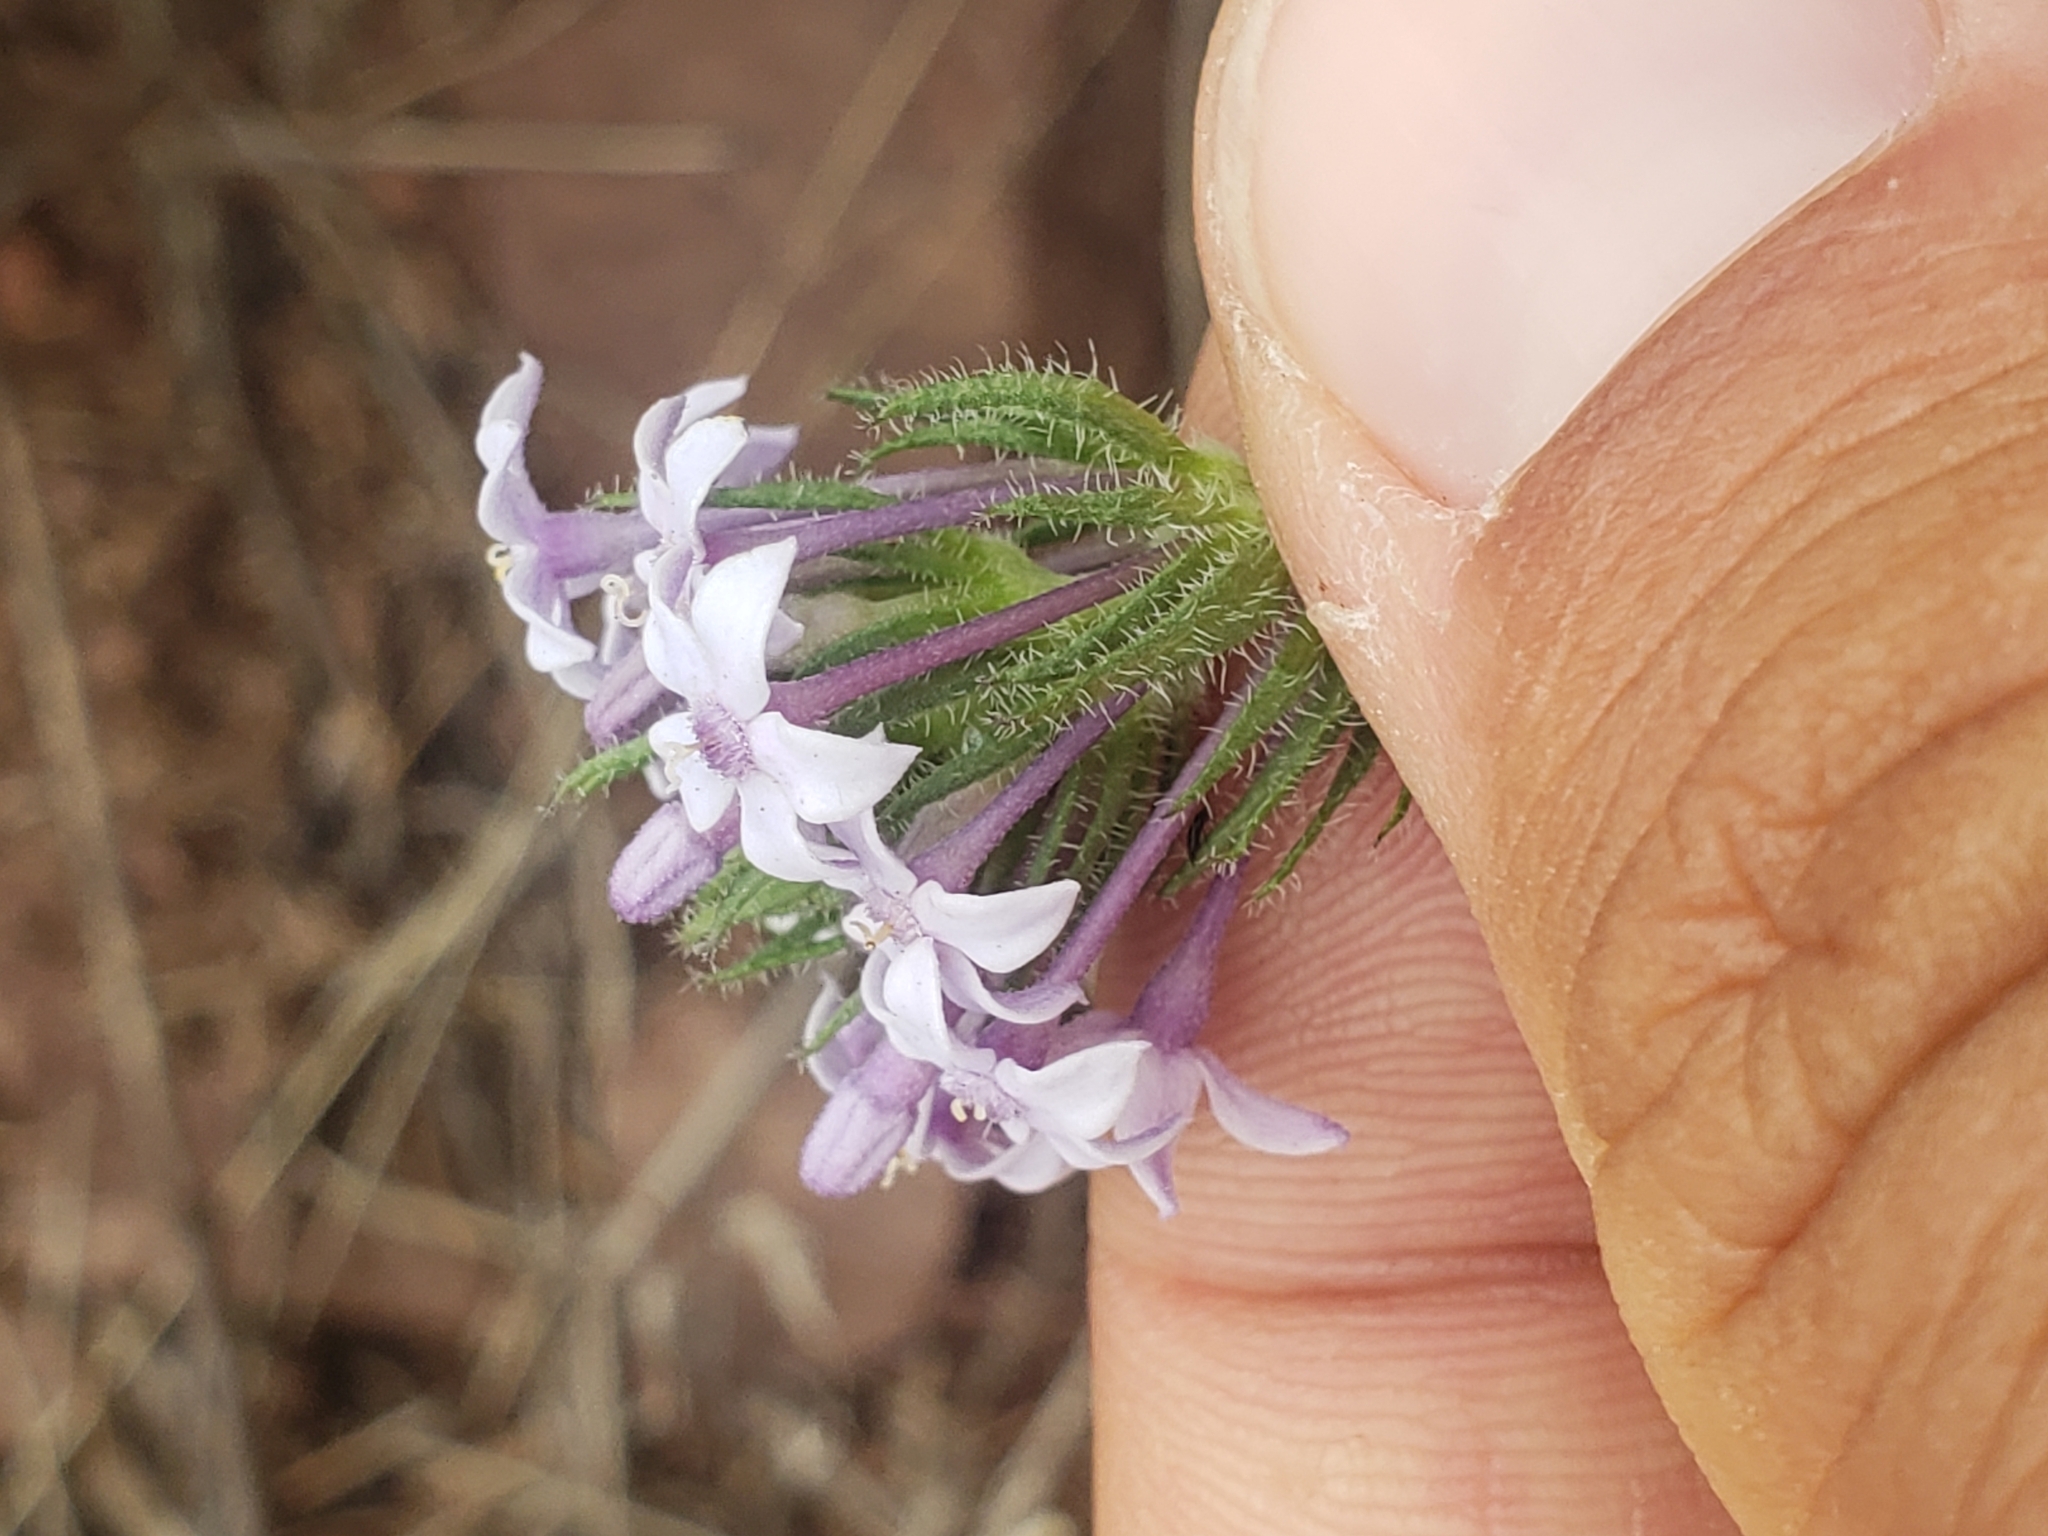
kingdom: Plantae
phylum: Tracheophyta
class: Magnoliopsida
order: Gentianales
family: Rubiaceae
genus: Pentanisia
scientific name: Pentanisia angustifolia
